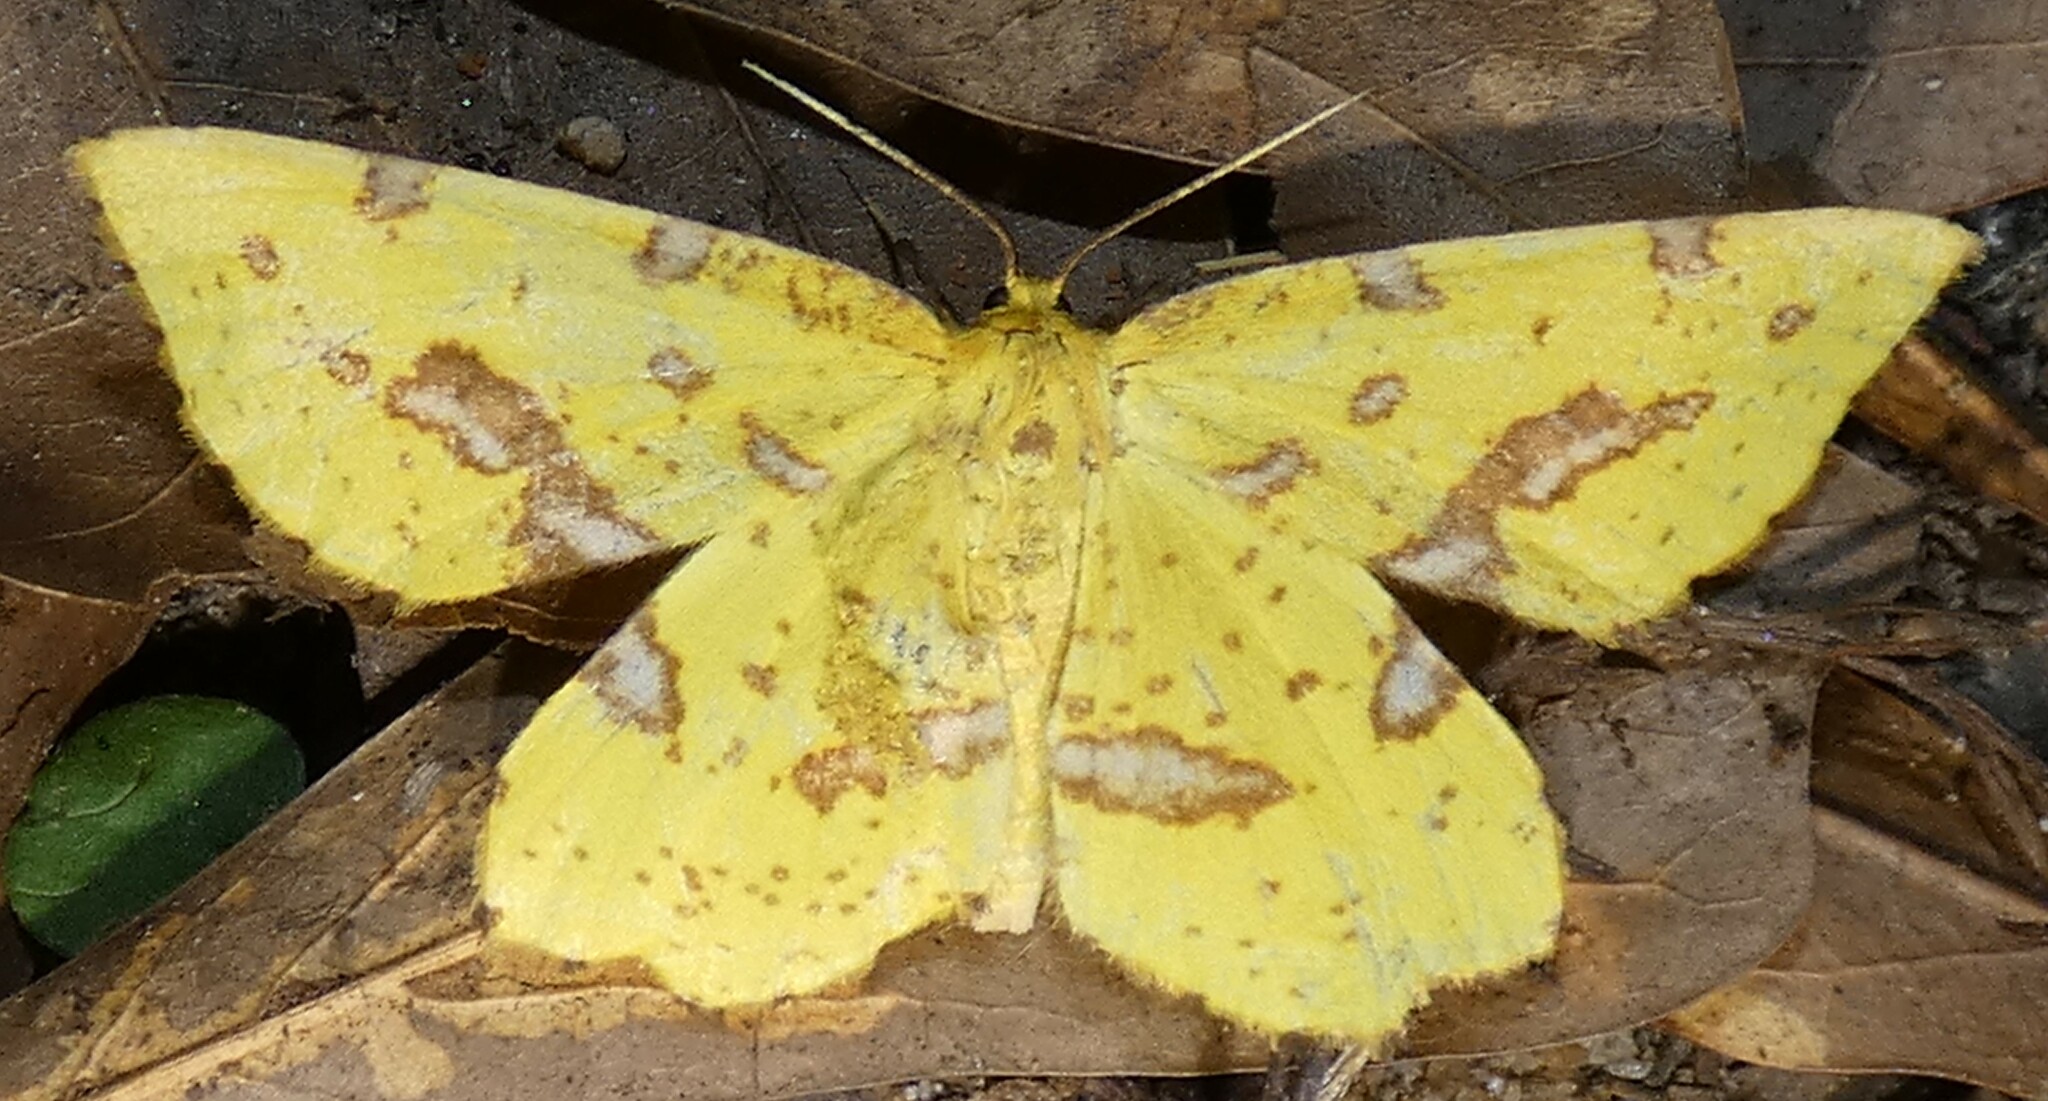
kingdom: Animalia
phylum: Arthropoda
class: Insecta
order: Lepidoptera
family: Geometridae
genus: Xanthotype
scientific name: Xanthotype
